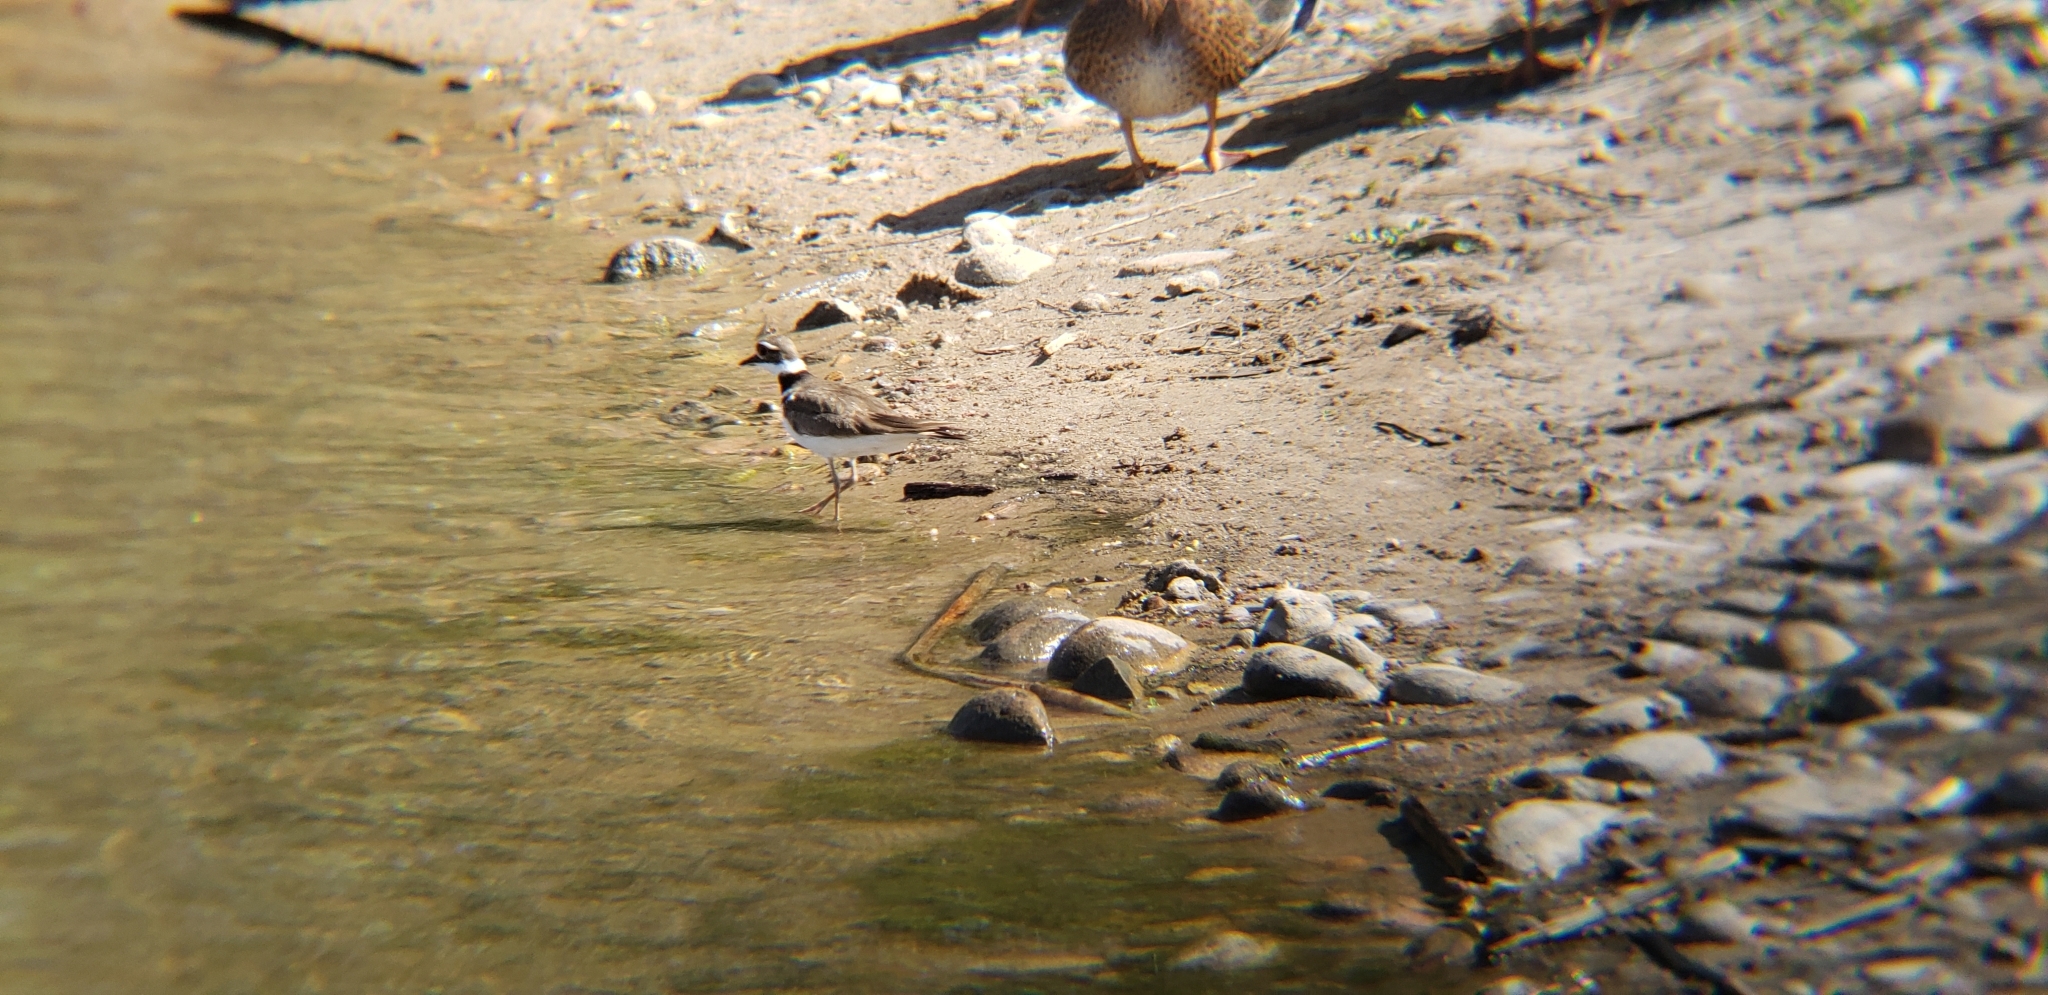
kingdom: Animalia
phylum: Chordata
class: Aves
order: Charadriiformes
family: Charadriidae
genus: Charadrius
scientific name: Charadrius vociferus
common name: Killdeer
